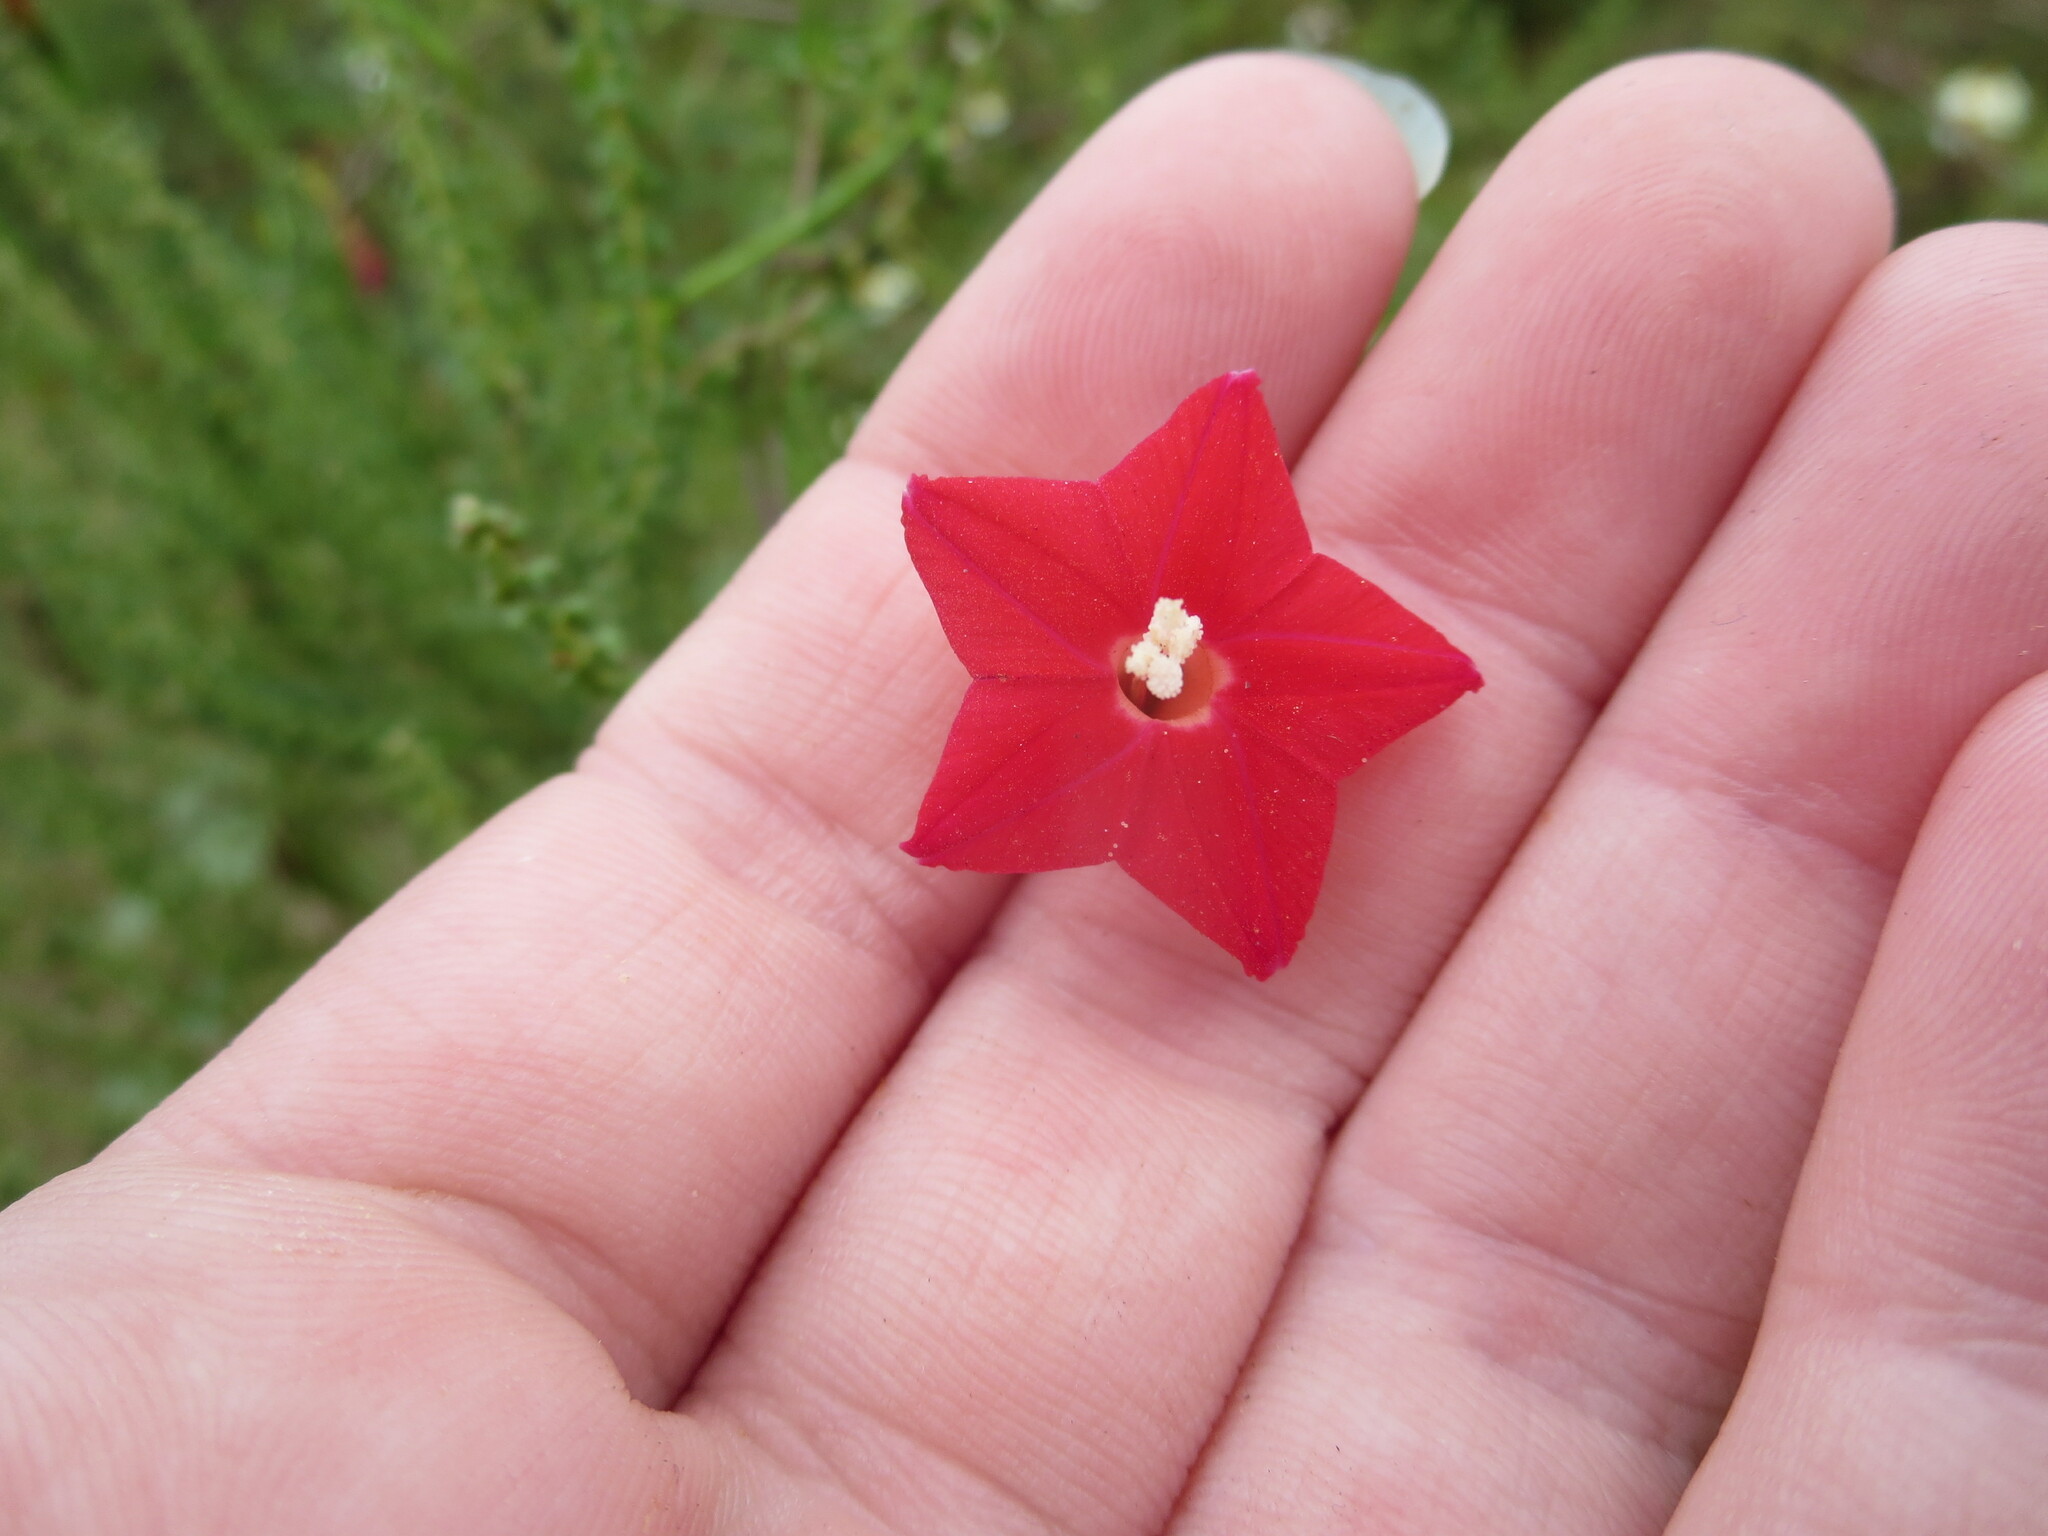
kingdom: Plantae
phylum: Tracheophyta
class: Magnoliopsida
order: Solanales
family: Convolvulaceae
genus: Ipomoea
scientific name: Ipomoea quamoclit
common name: Cypress vine
